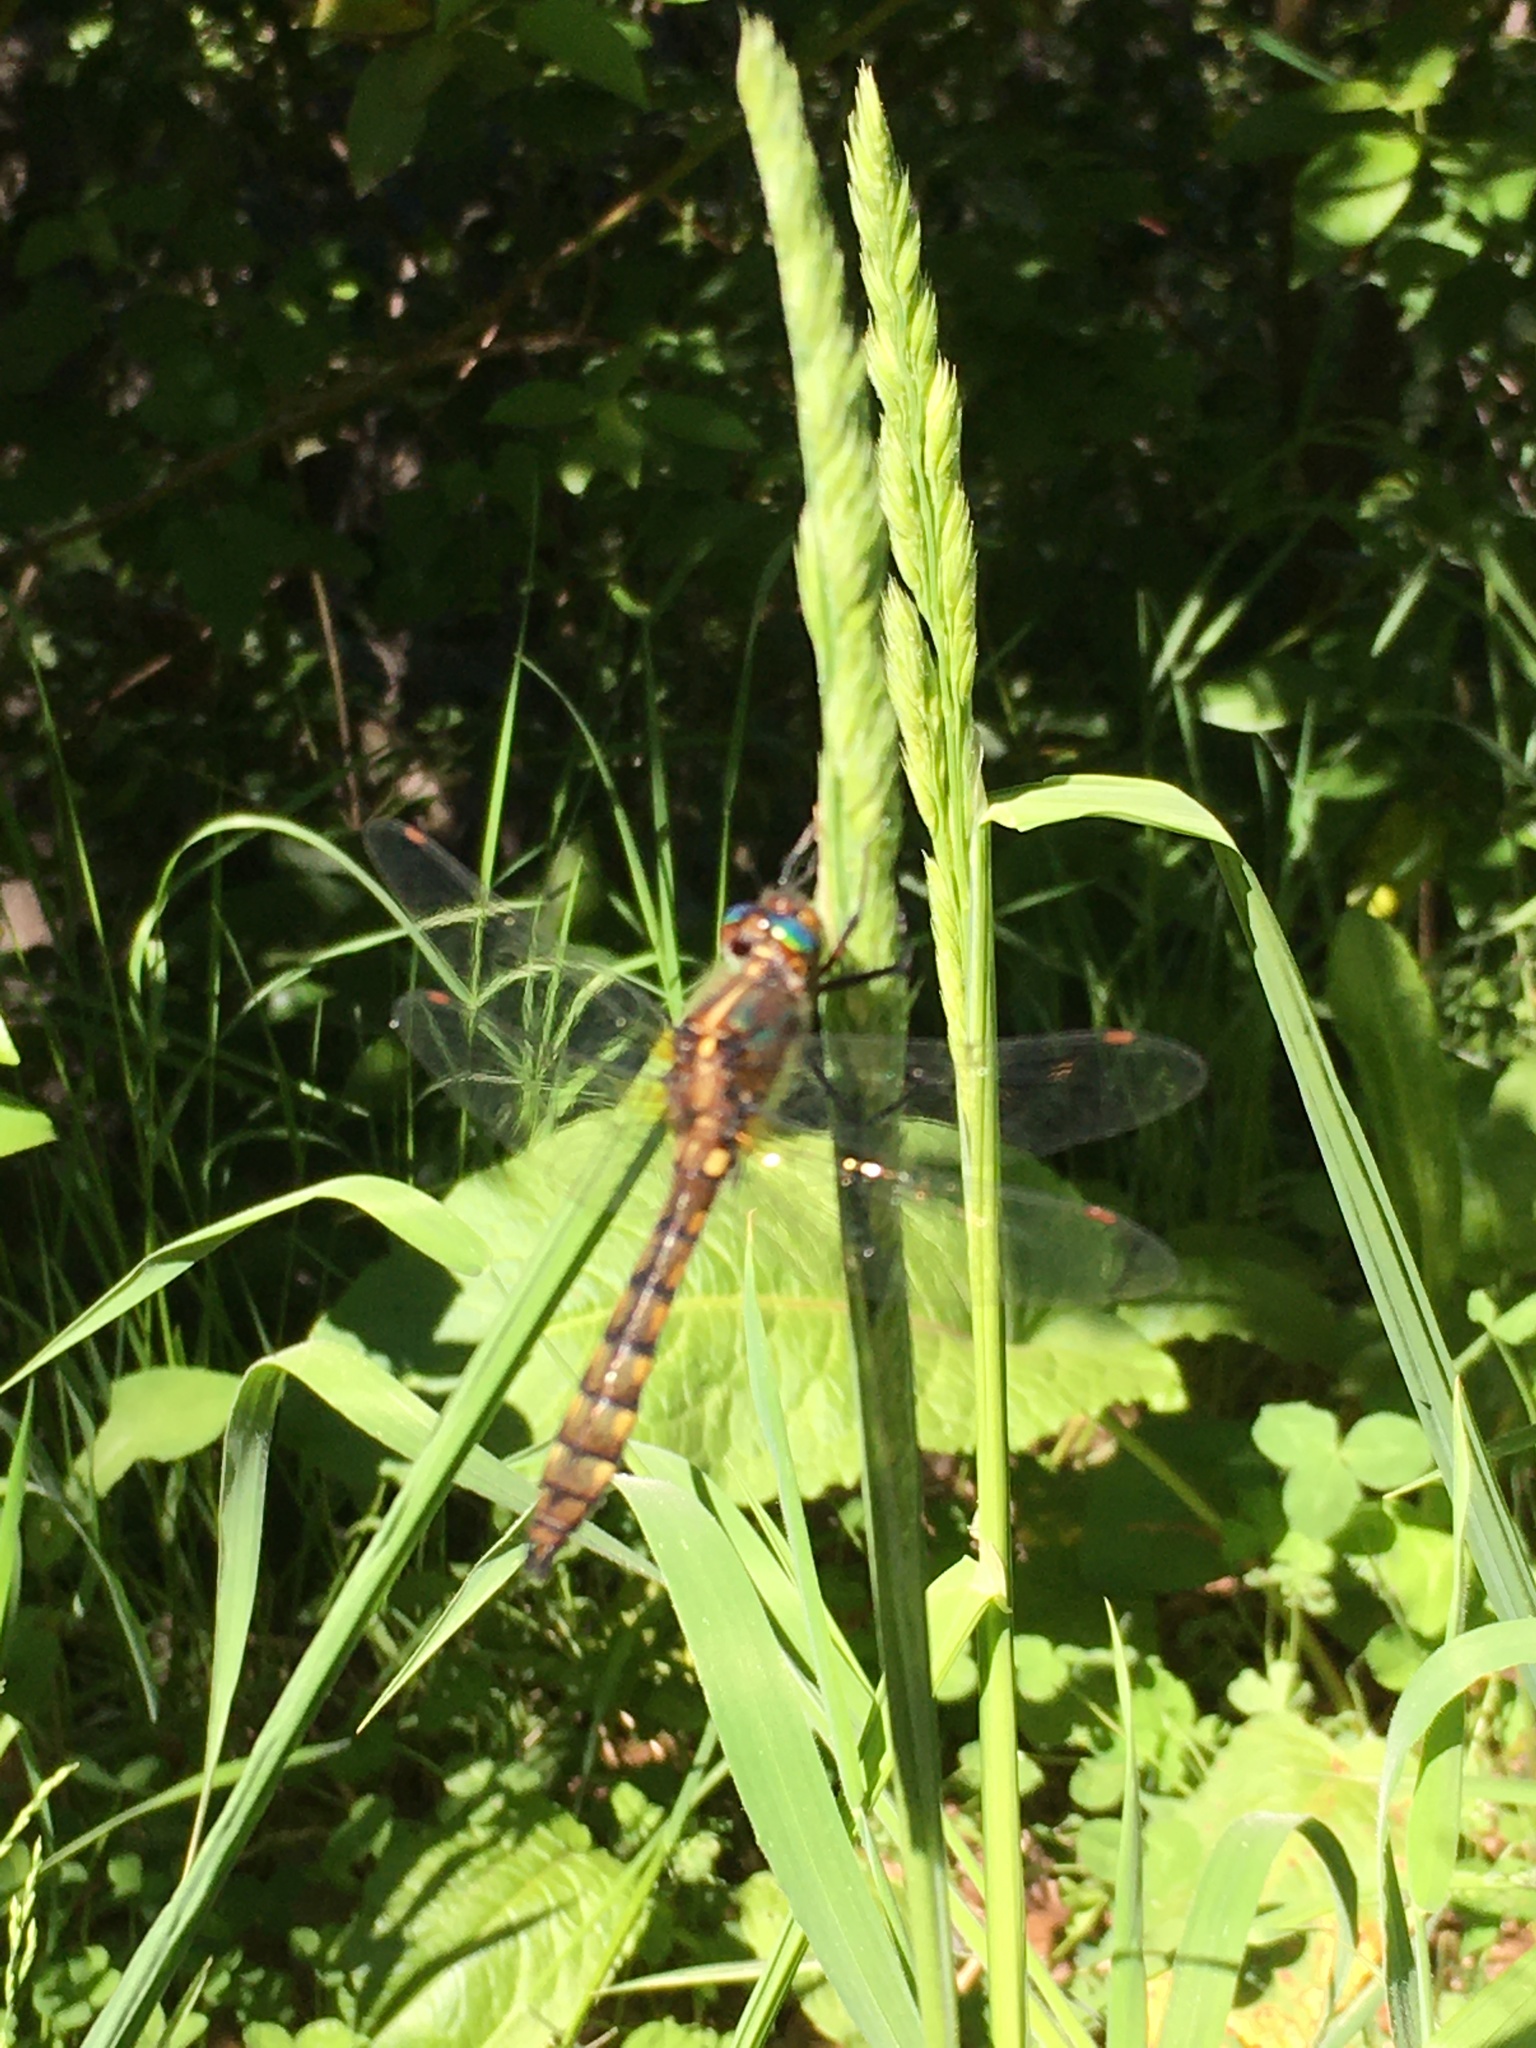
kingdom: Animalia
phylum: Arthropoda
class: Insecta
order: Odonata
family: Corduliidae
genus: Rialla
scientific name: Rialla villosa
